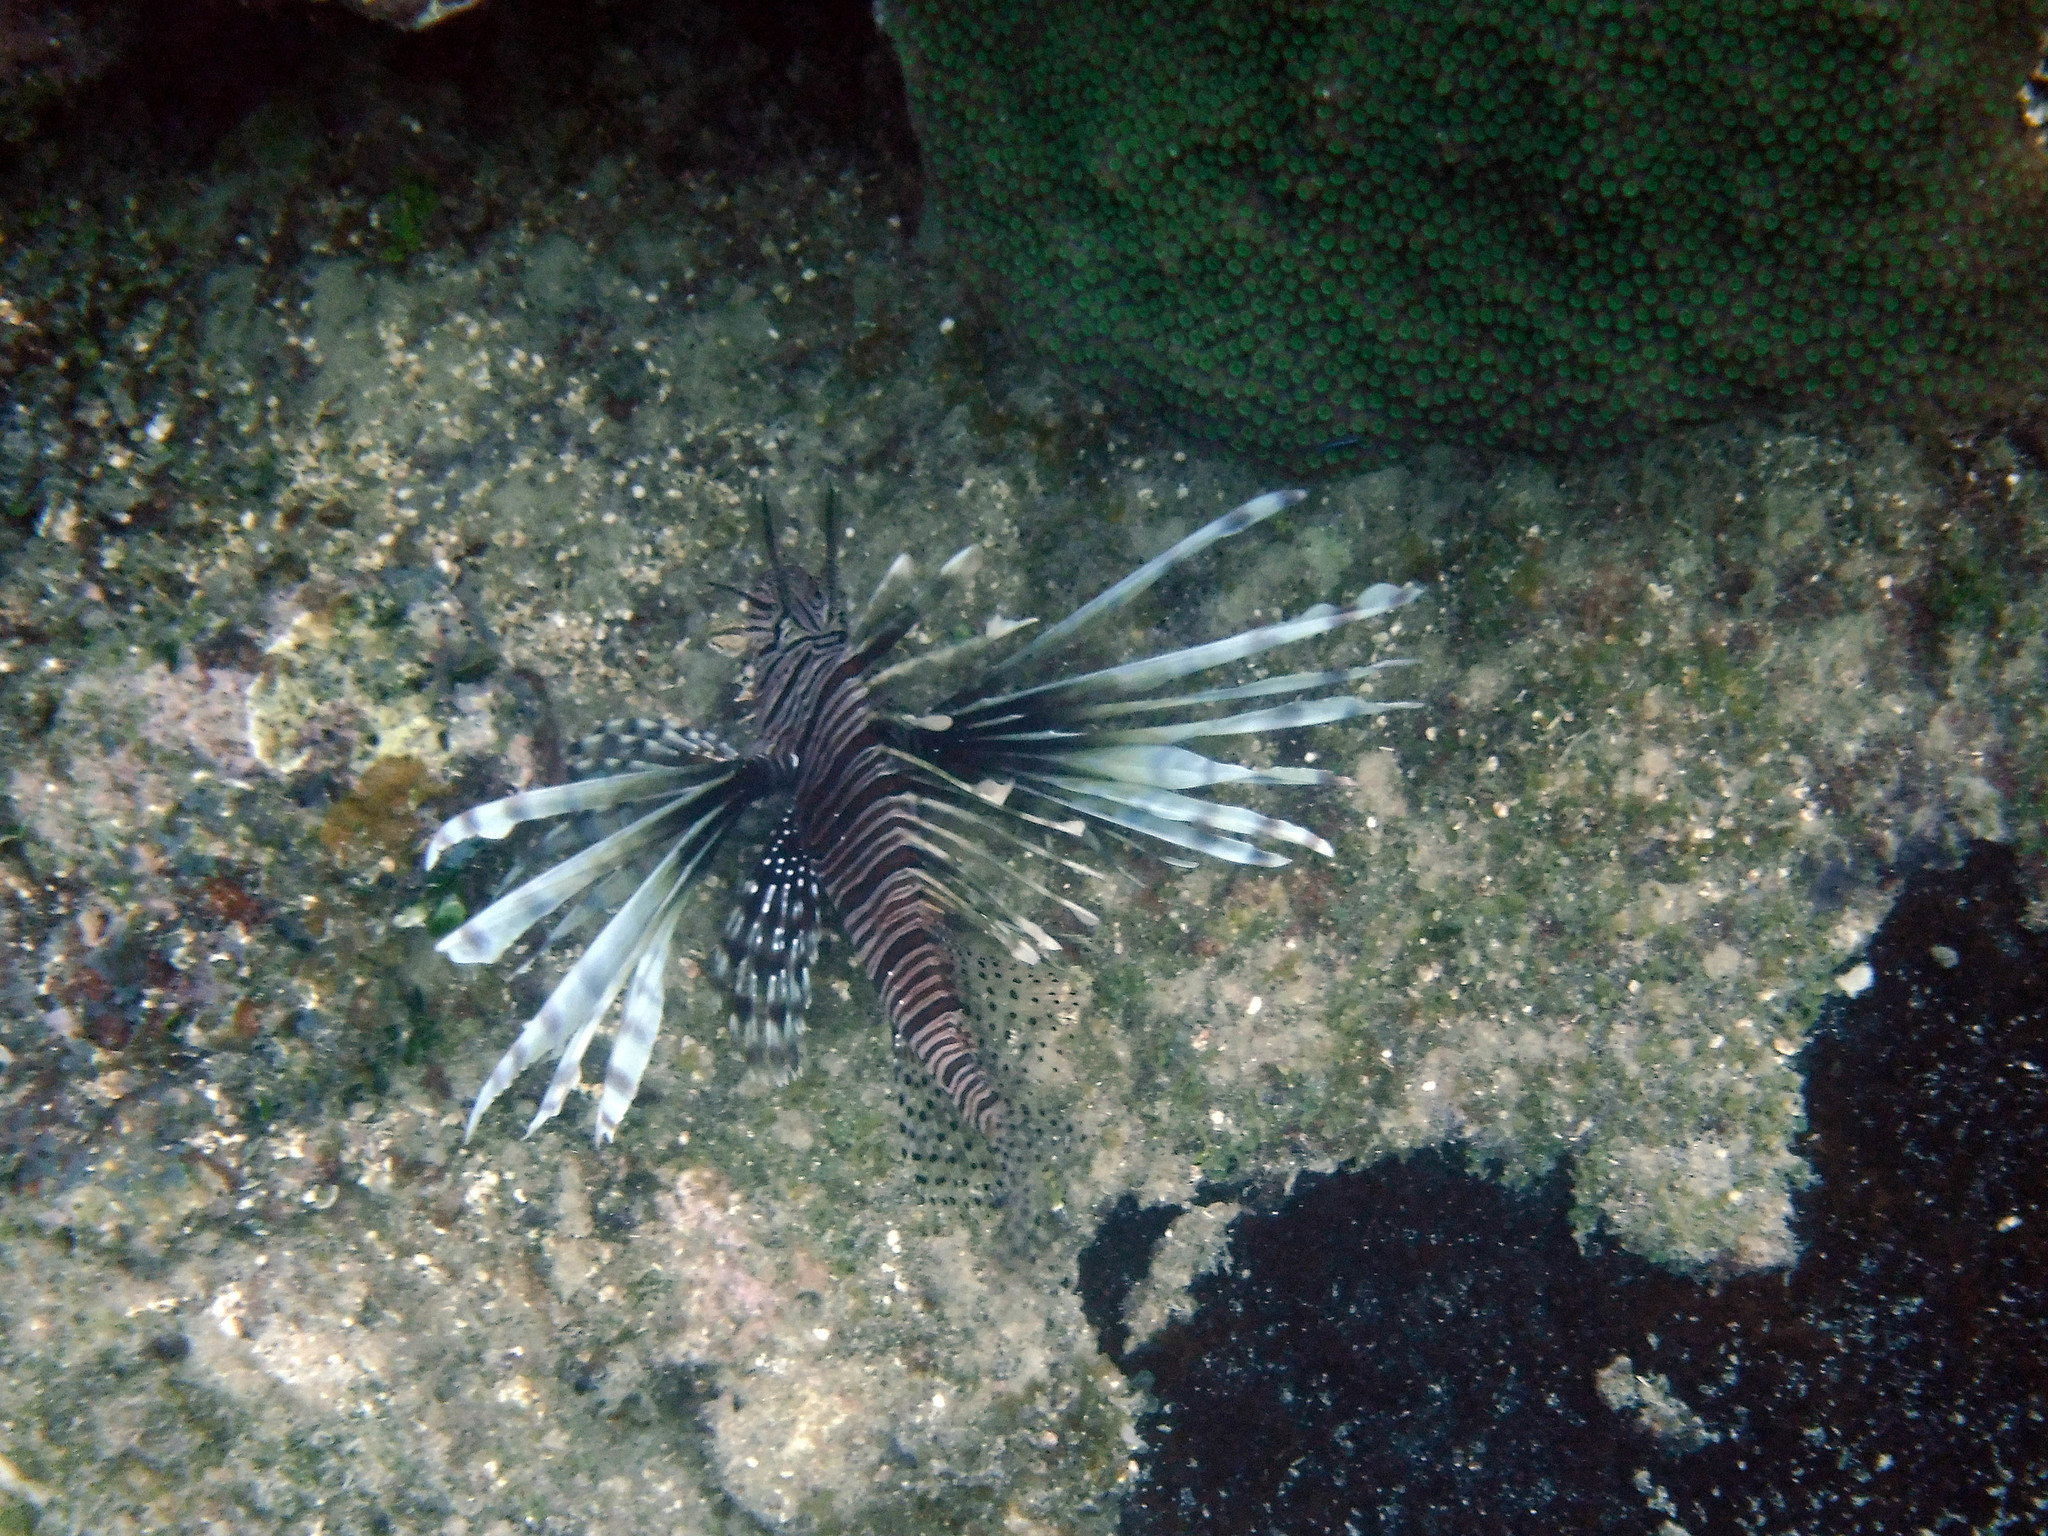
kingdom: Animalia
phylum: Chordata
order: Scorpaeniformes
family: Scorpaenidae
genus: Pterois
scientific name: Pterois volitans
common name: Lionfish
